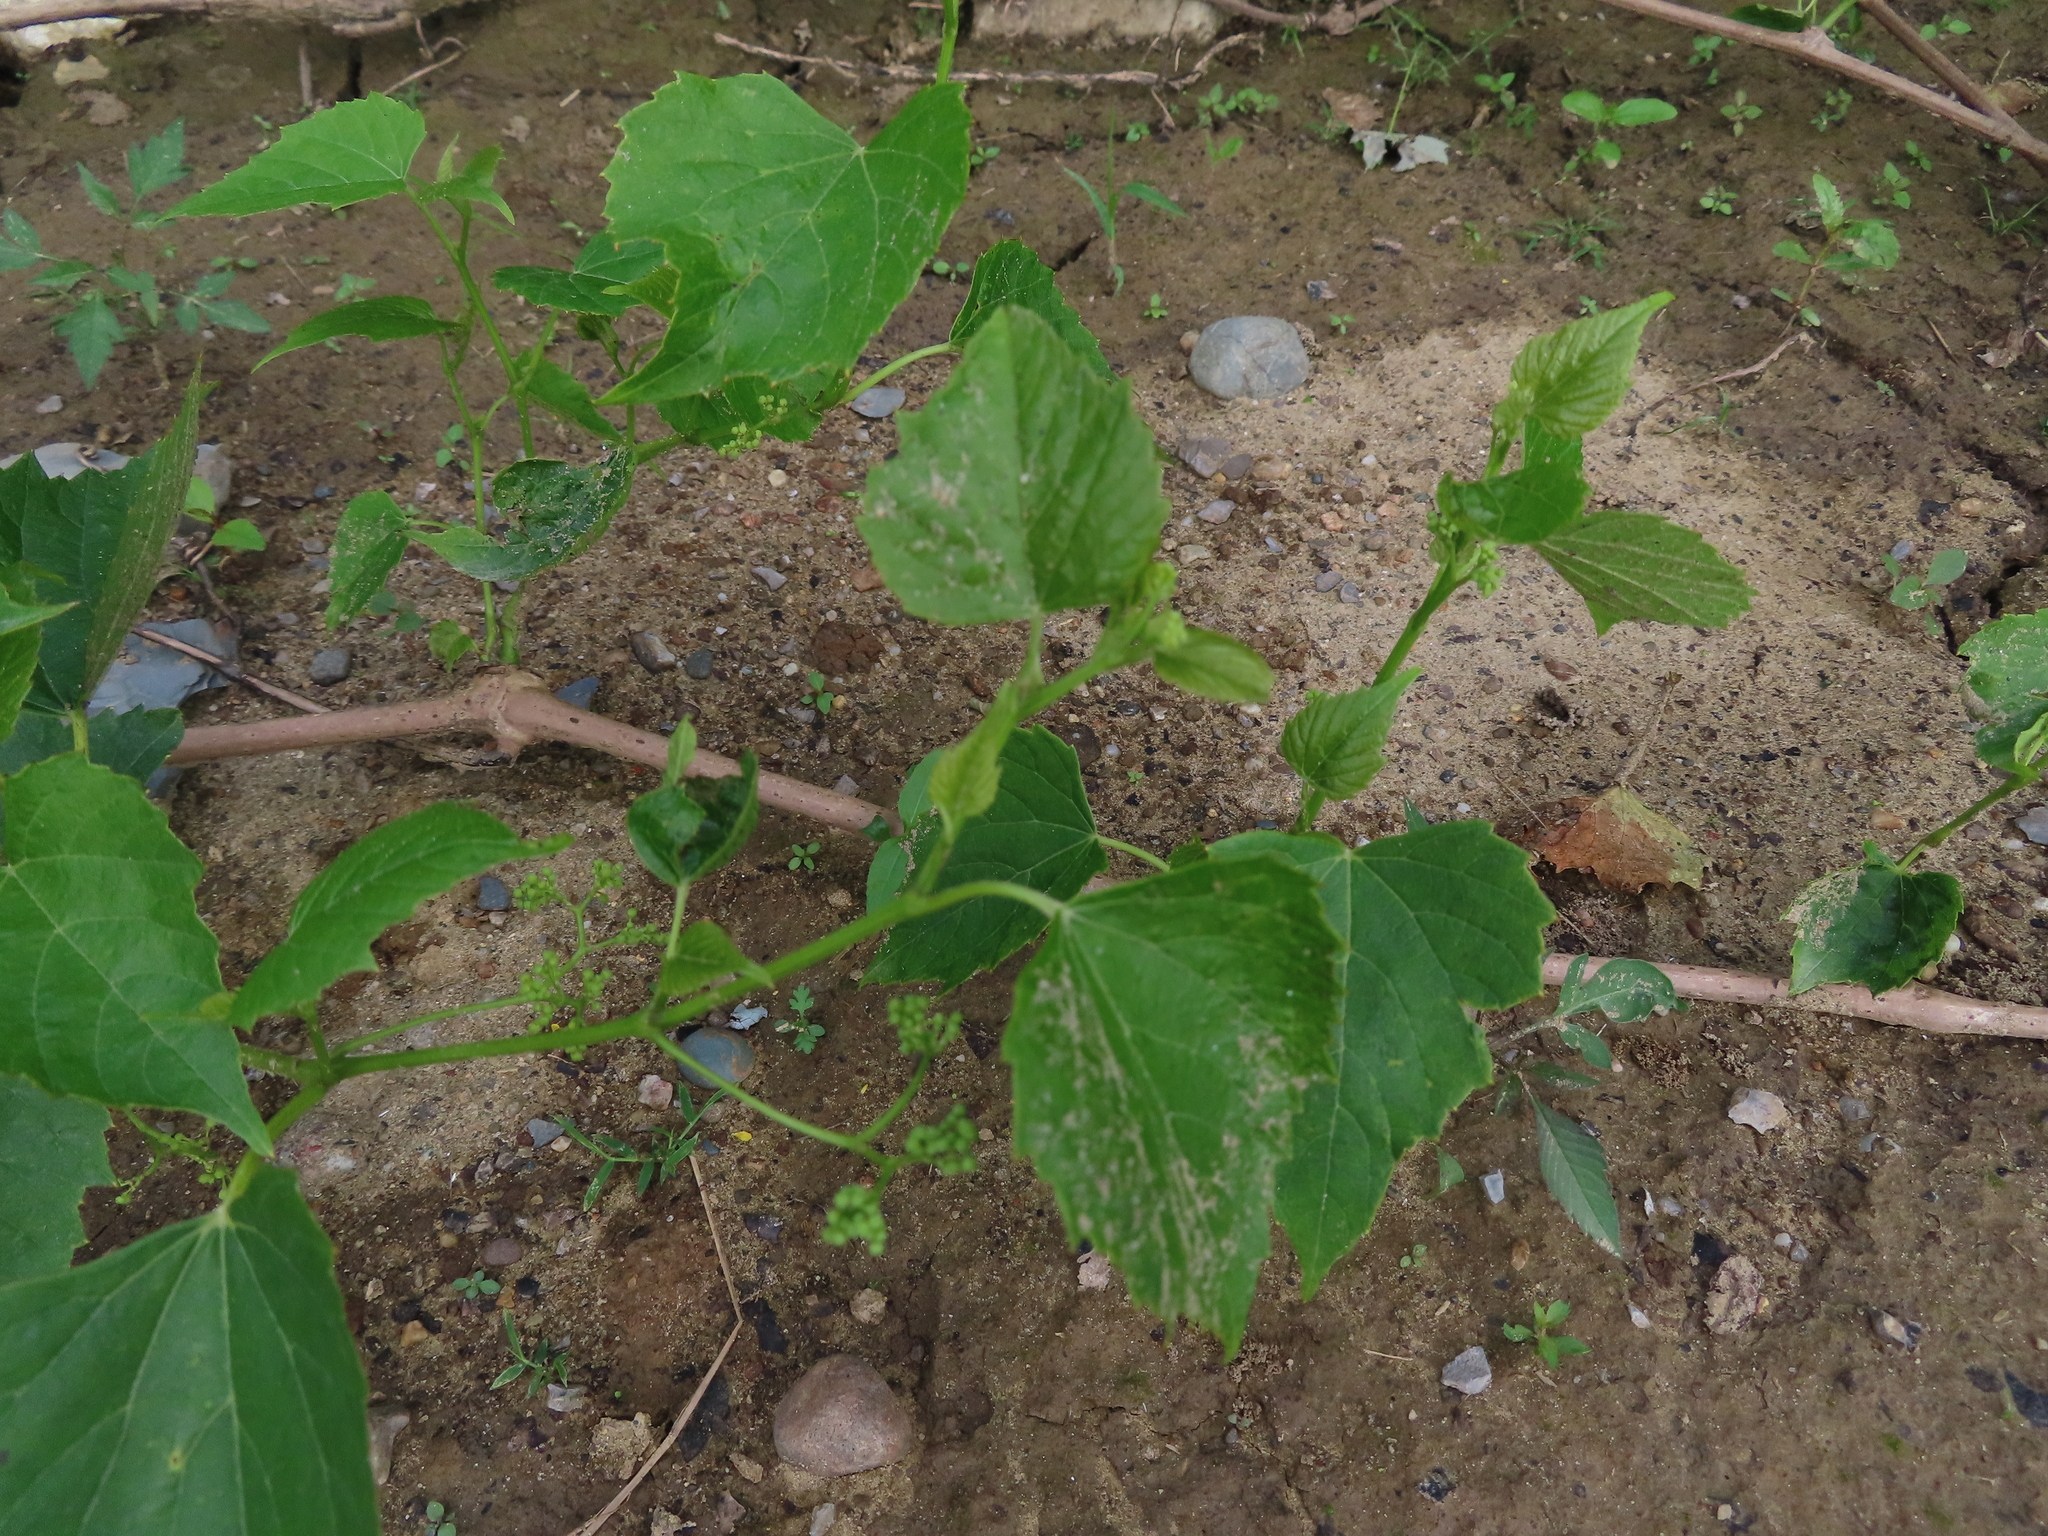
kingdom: Plantae
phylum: Tracheophyta
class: Magnoliopsida
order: Vitales
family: Vitaceae
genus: Ampelopsis
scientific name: Ampelopsis cordata
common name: Heart-leaf ampelopsis
